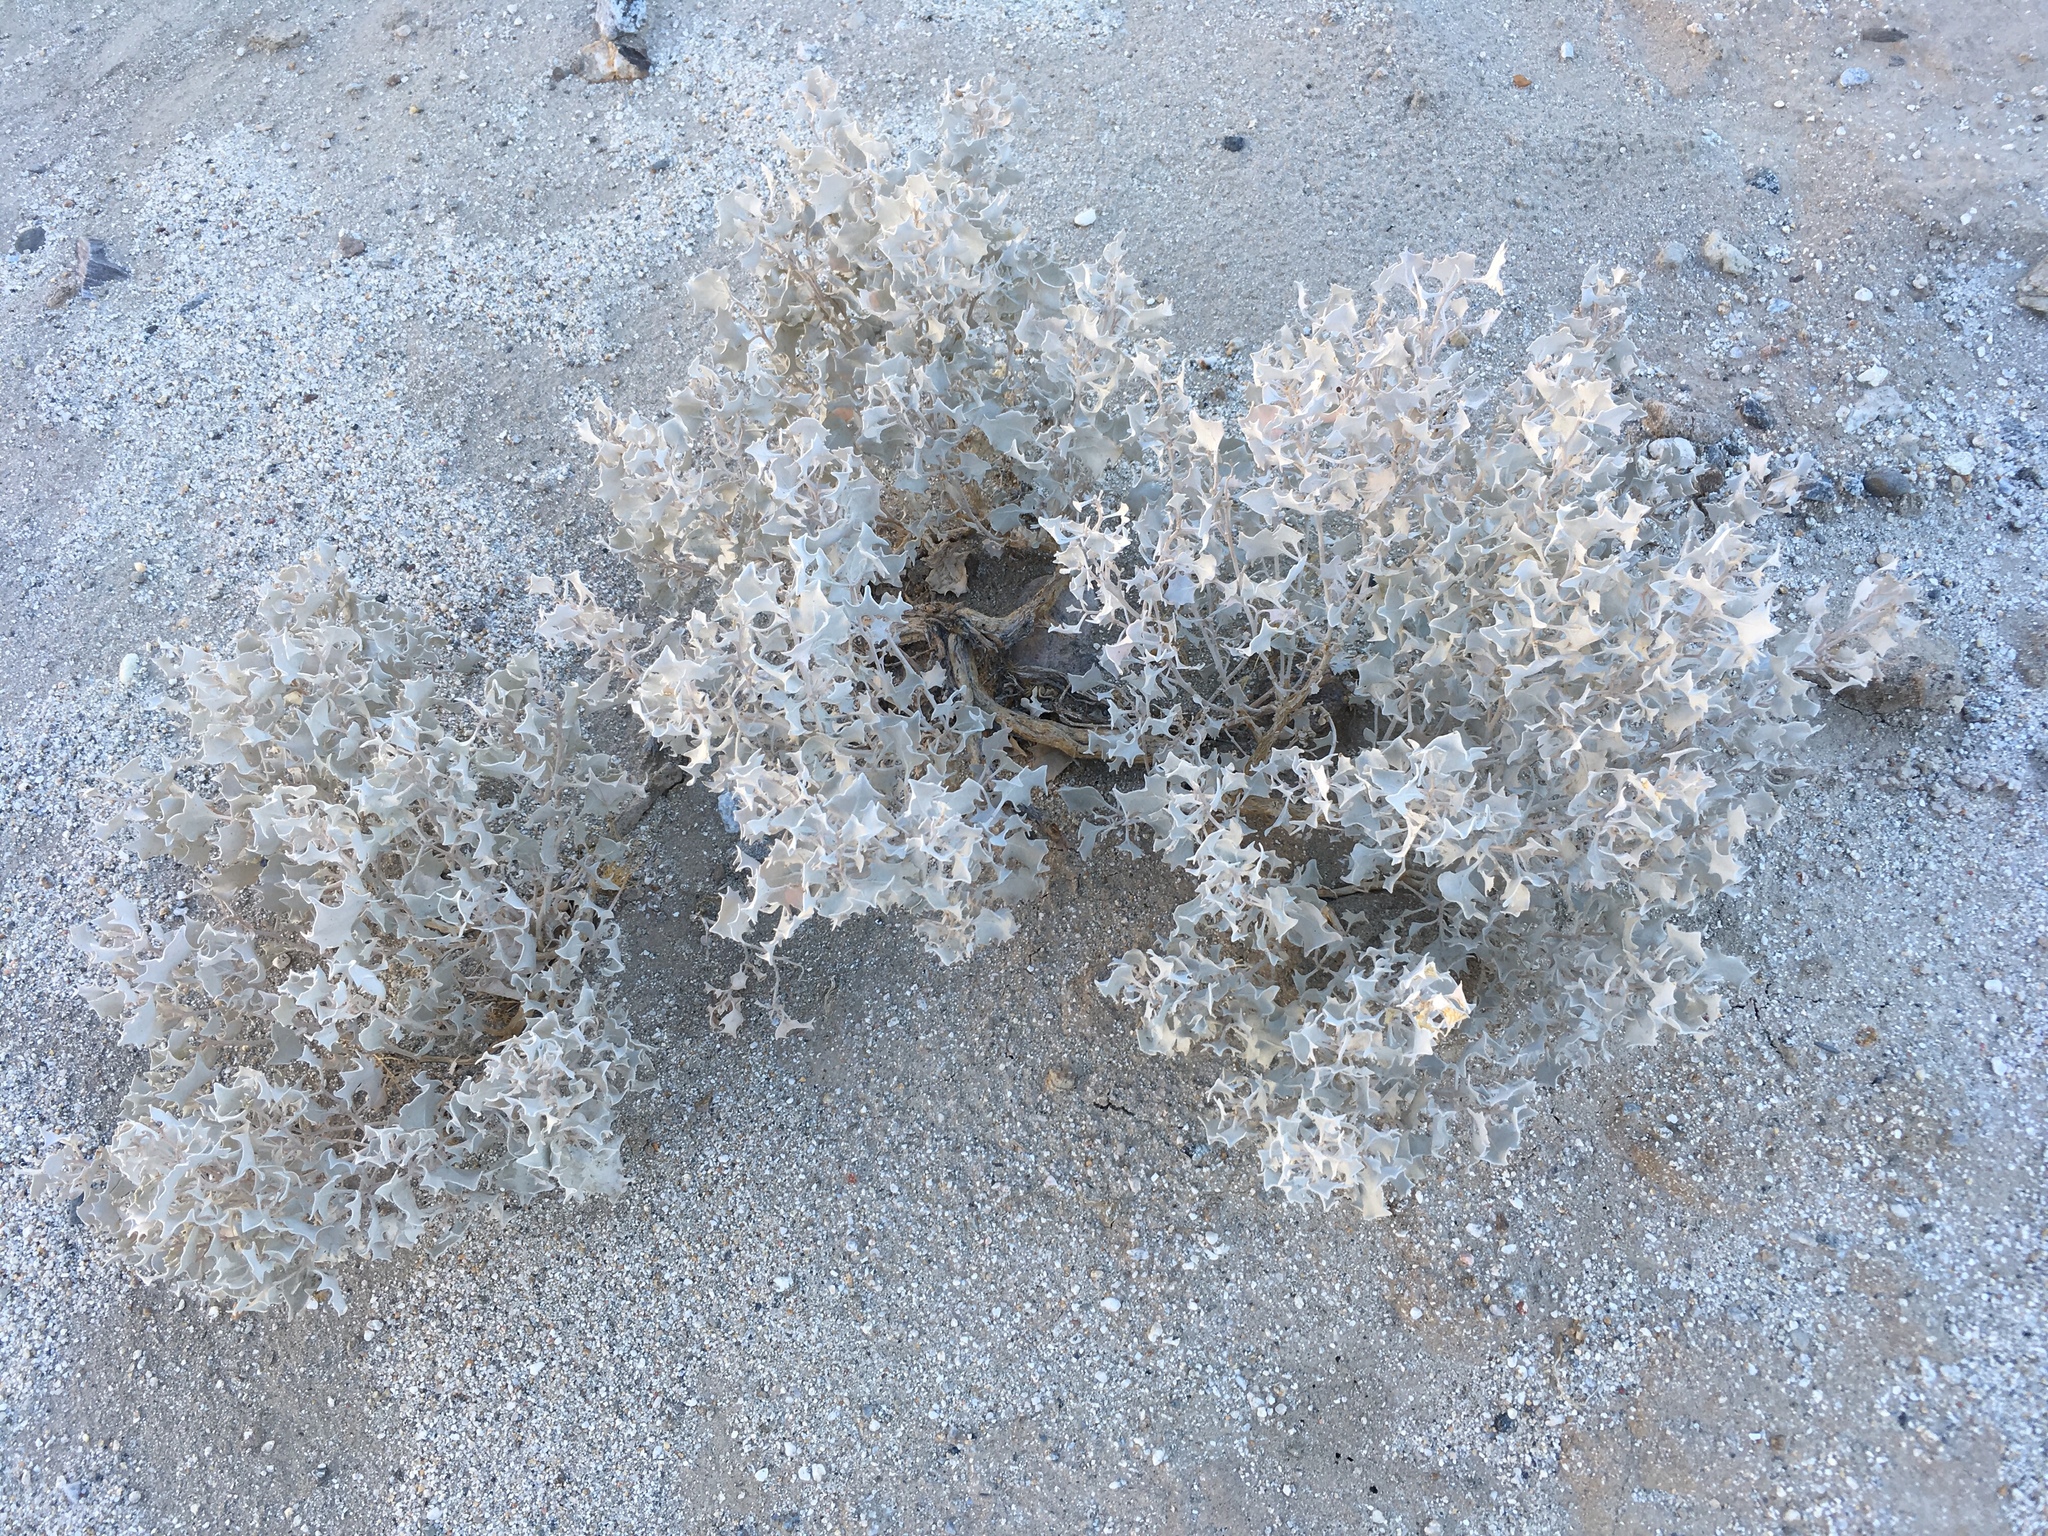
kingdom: Plantae
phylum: Tracheophyta
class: Magnoliopsida
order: Caryophyllales
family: Amaranthaceae
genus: Atriplex
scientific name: Atriplex hymenelytra
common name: Desert-holly
